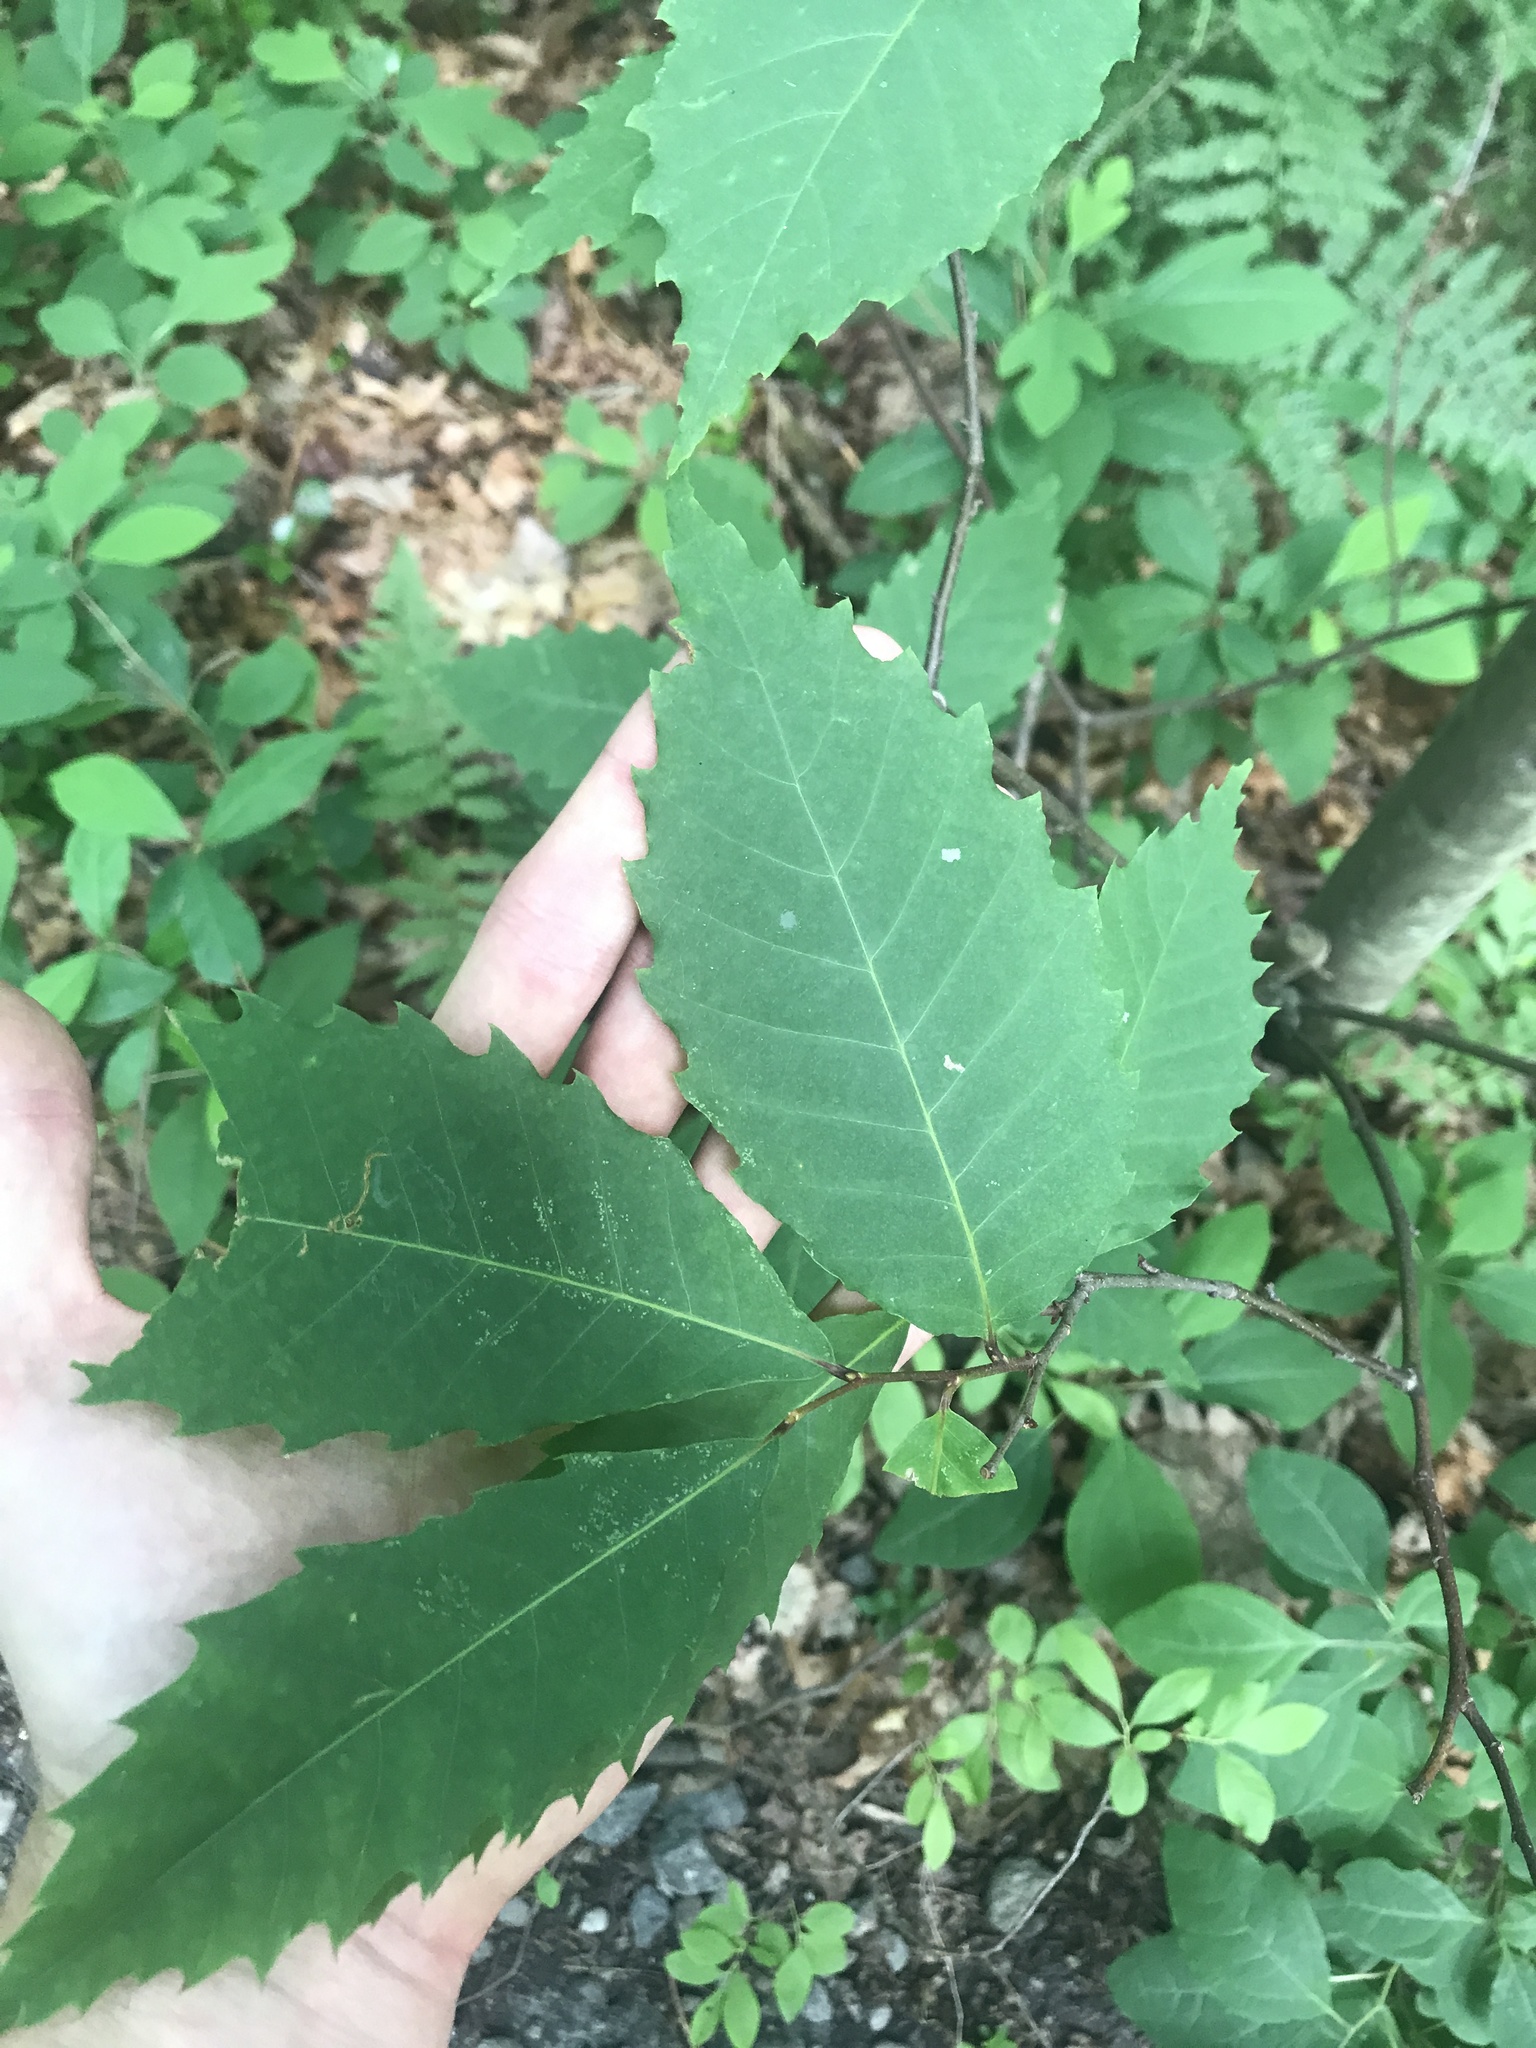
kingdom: Plantae
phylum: Tracheophyta
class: Magnoliopsida
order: Fagales
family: Fagaceae
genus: Castanea
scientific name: Castanea dentata
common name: American chestnut
